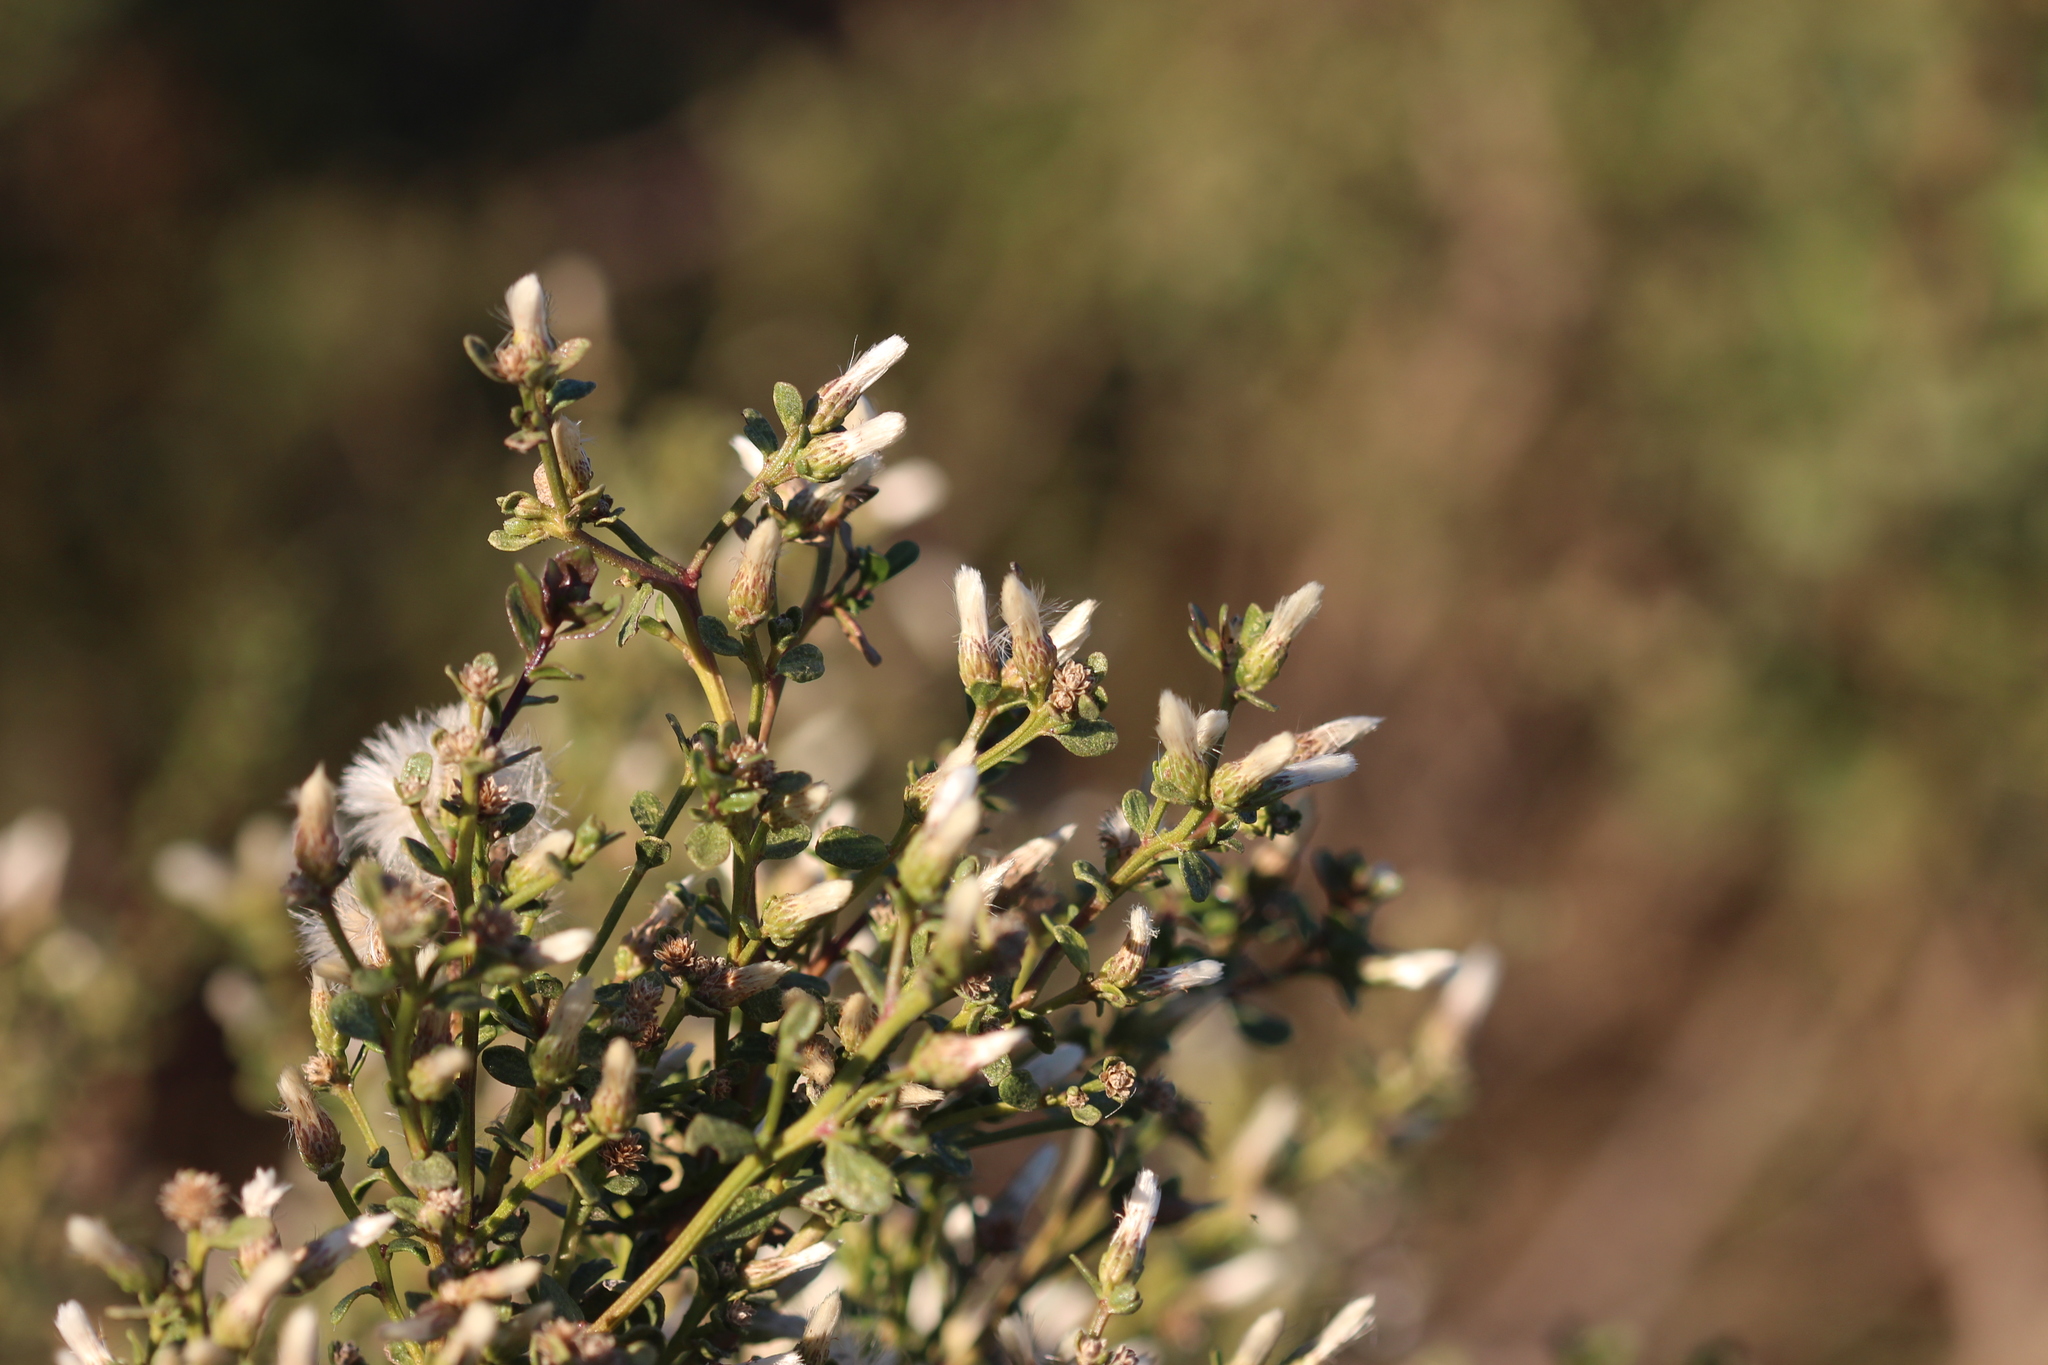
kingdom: Plantae
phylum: Tracheophyta
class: Magnoliopsida
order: Asterales
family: Asteraceae
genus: Baccharis
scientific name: Baccharis pilularis
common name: Coyotebrush
